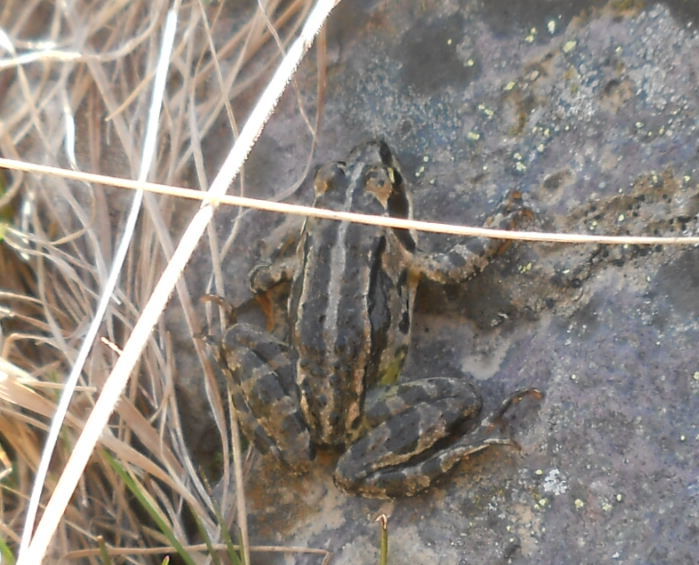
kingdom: Animalia
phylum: Chordata
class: Amphibia
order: Anura
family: Ranidae
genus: Rana
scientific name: Rana macrocnemis
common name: Banded frog
